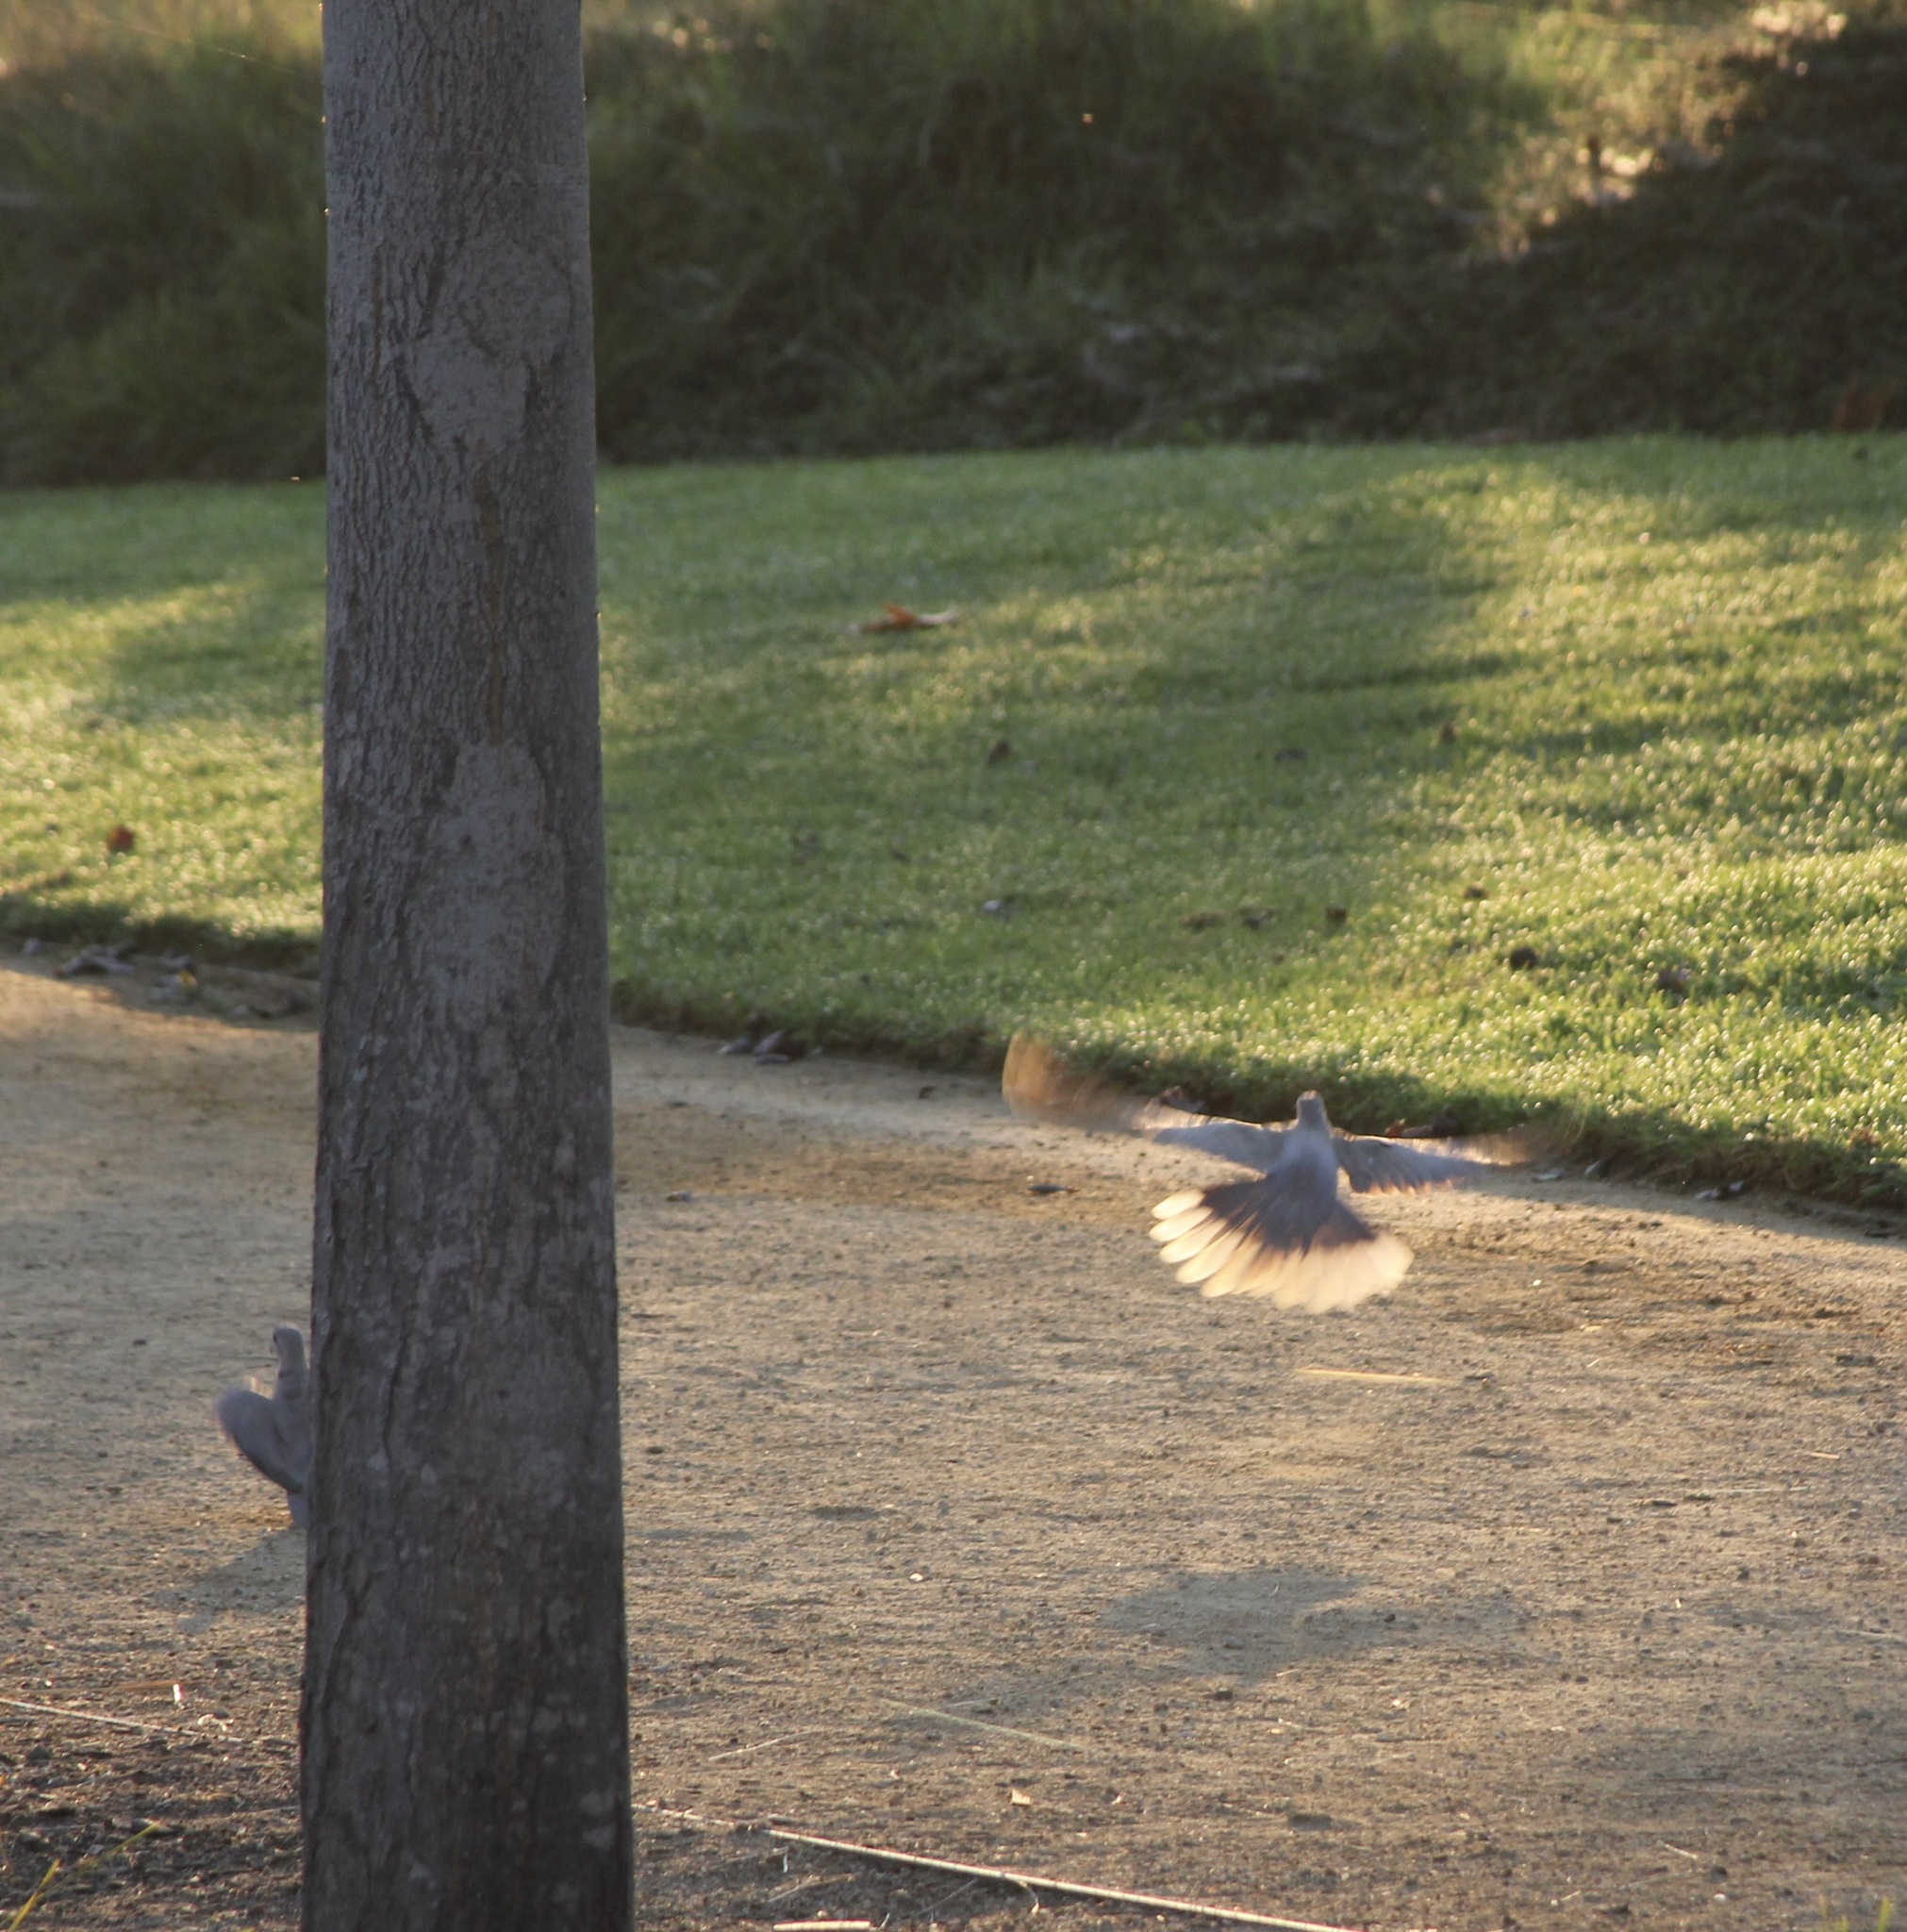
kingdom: Animalia
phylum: Chordata
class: Aves
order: Columbiformes
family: Columbidae
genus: Streptopelia
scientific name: Streptopelia decaocto
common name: Eurasian collared dove
